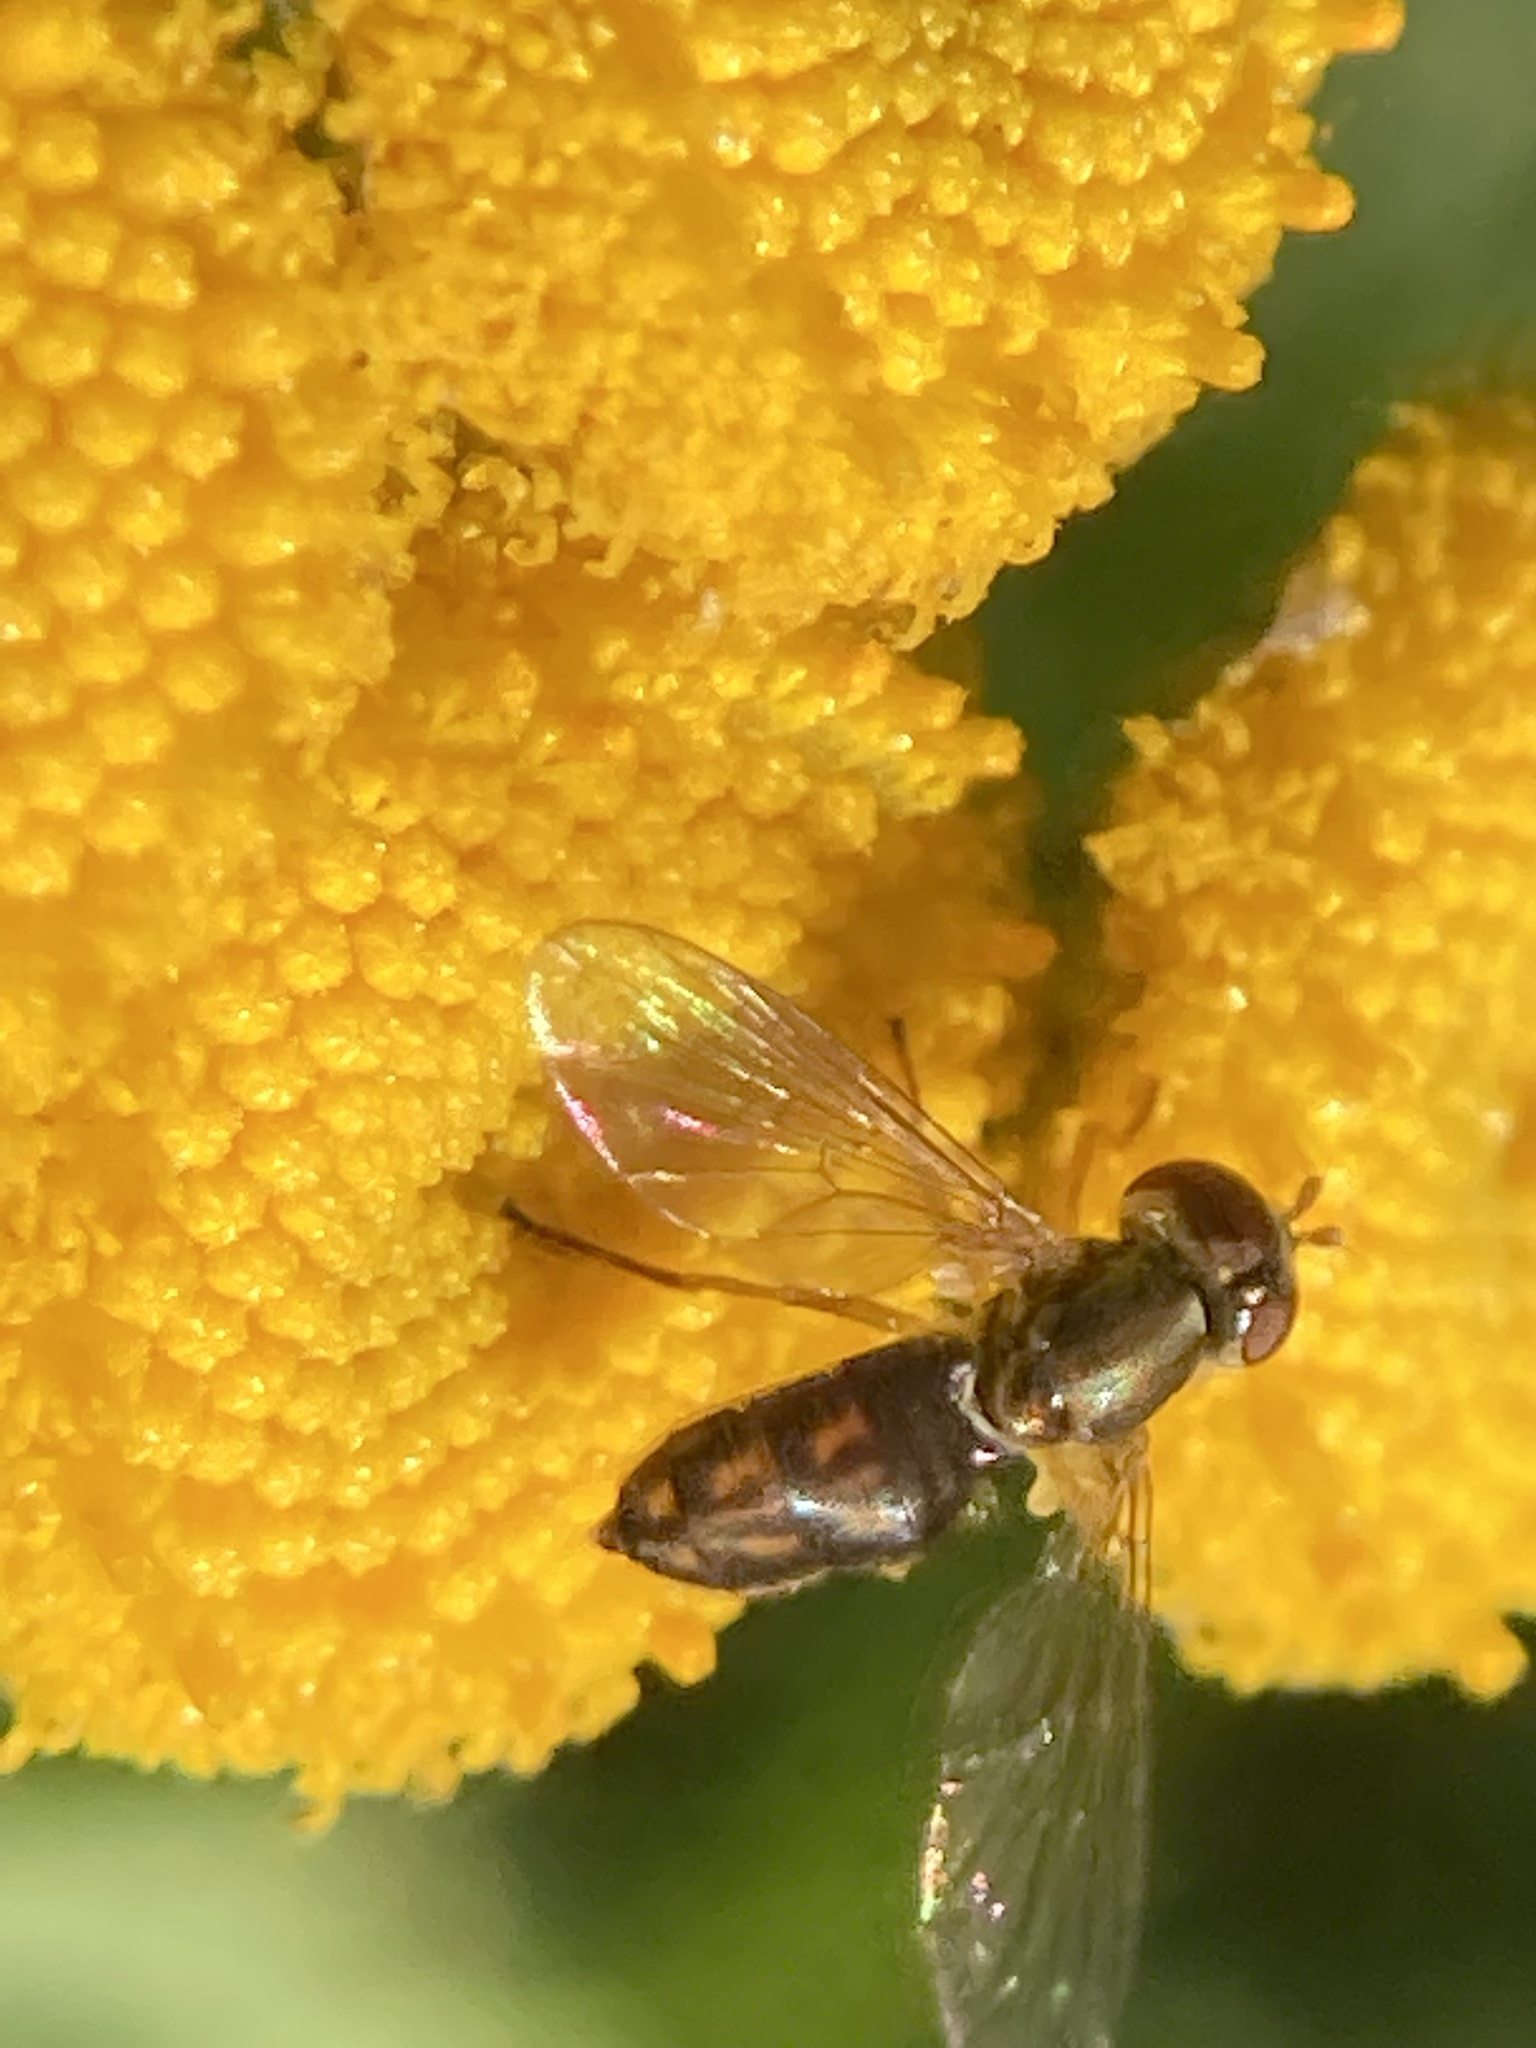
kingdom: Animalia
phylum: Arthropoda
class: Insecta
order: Diptera
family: Syrphidae
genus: Toxomerus
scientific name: Toxomerus marginatus
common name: Syrphid fly
